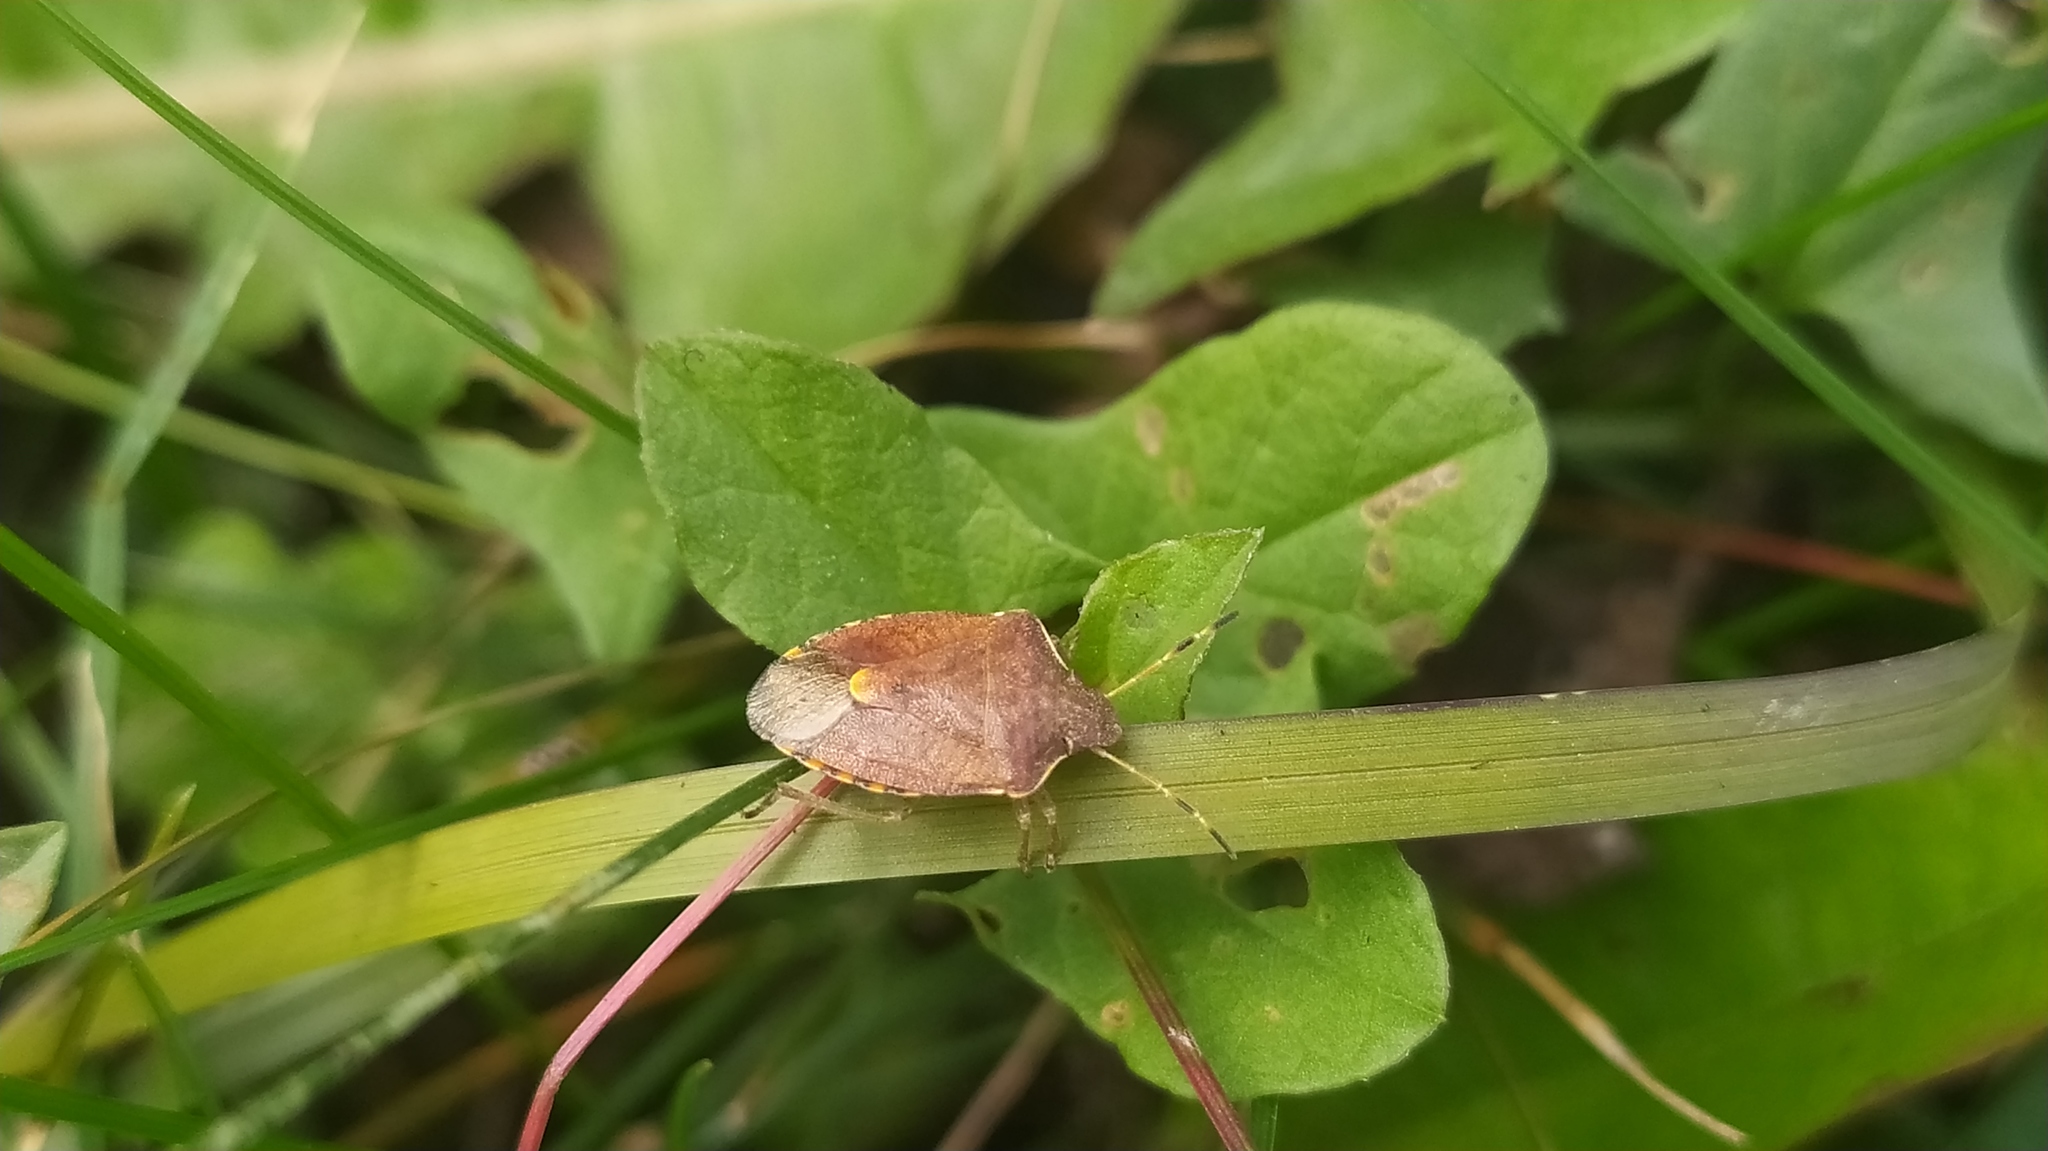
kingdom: Animalia
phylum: Arthropoda
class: Insecta
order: Hemiptera
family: Pentatomidae
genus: Holcostethus
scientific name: Holcostethus strictus
